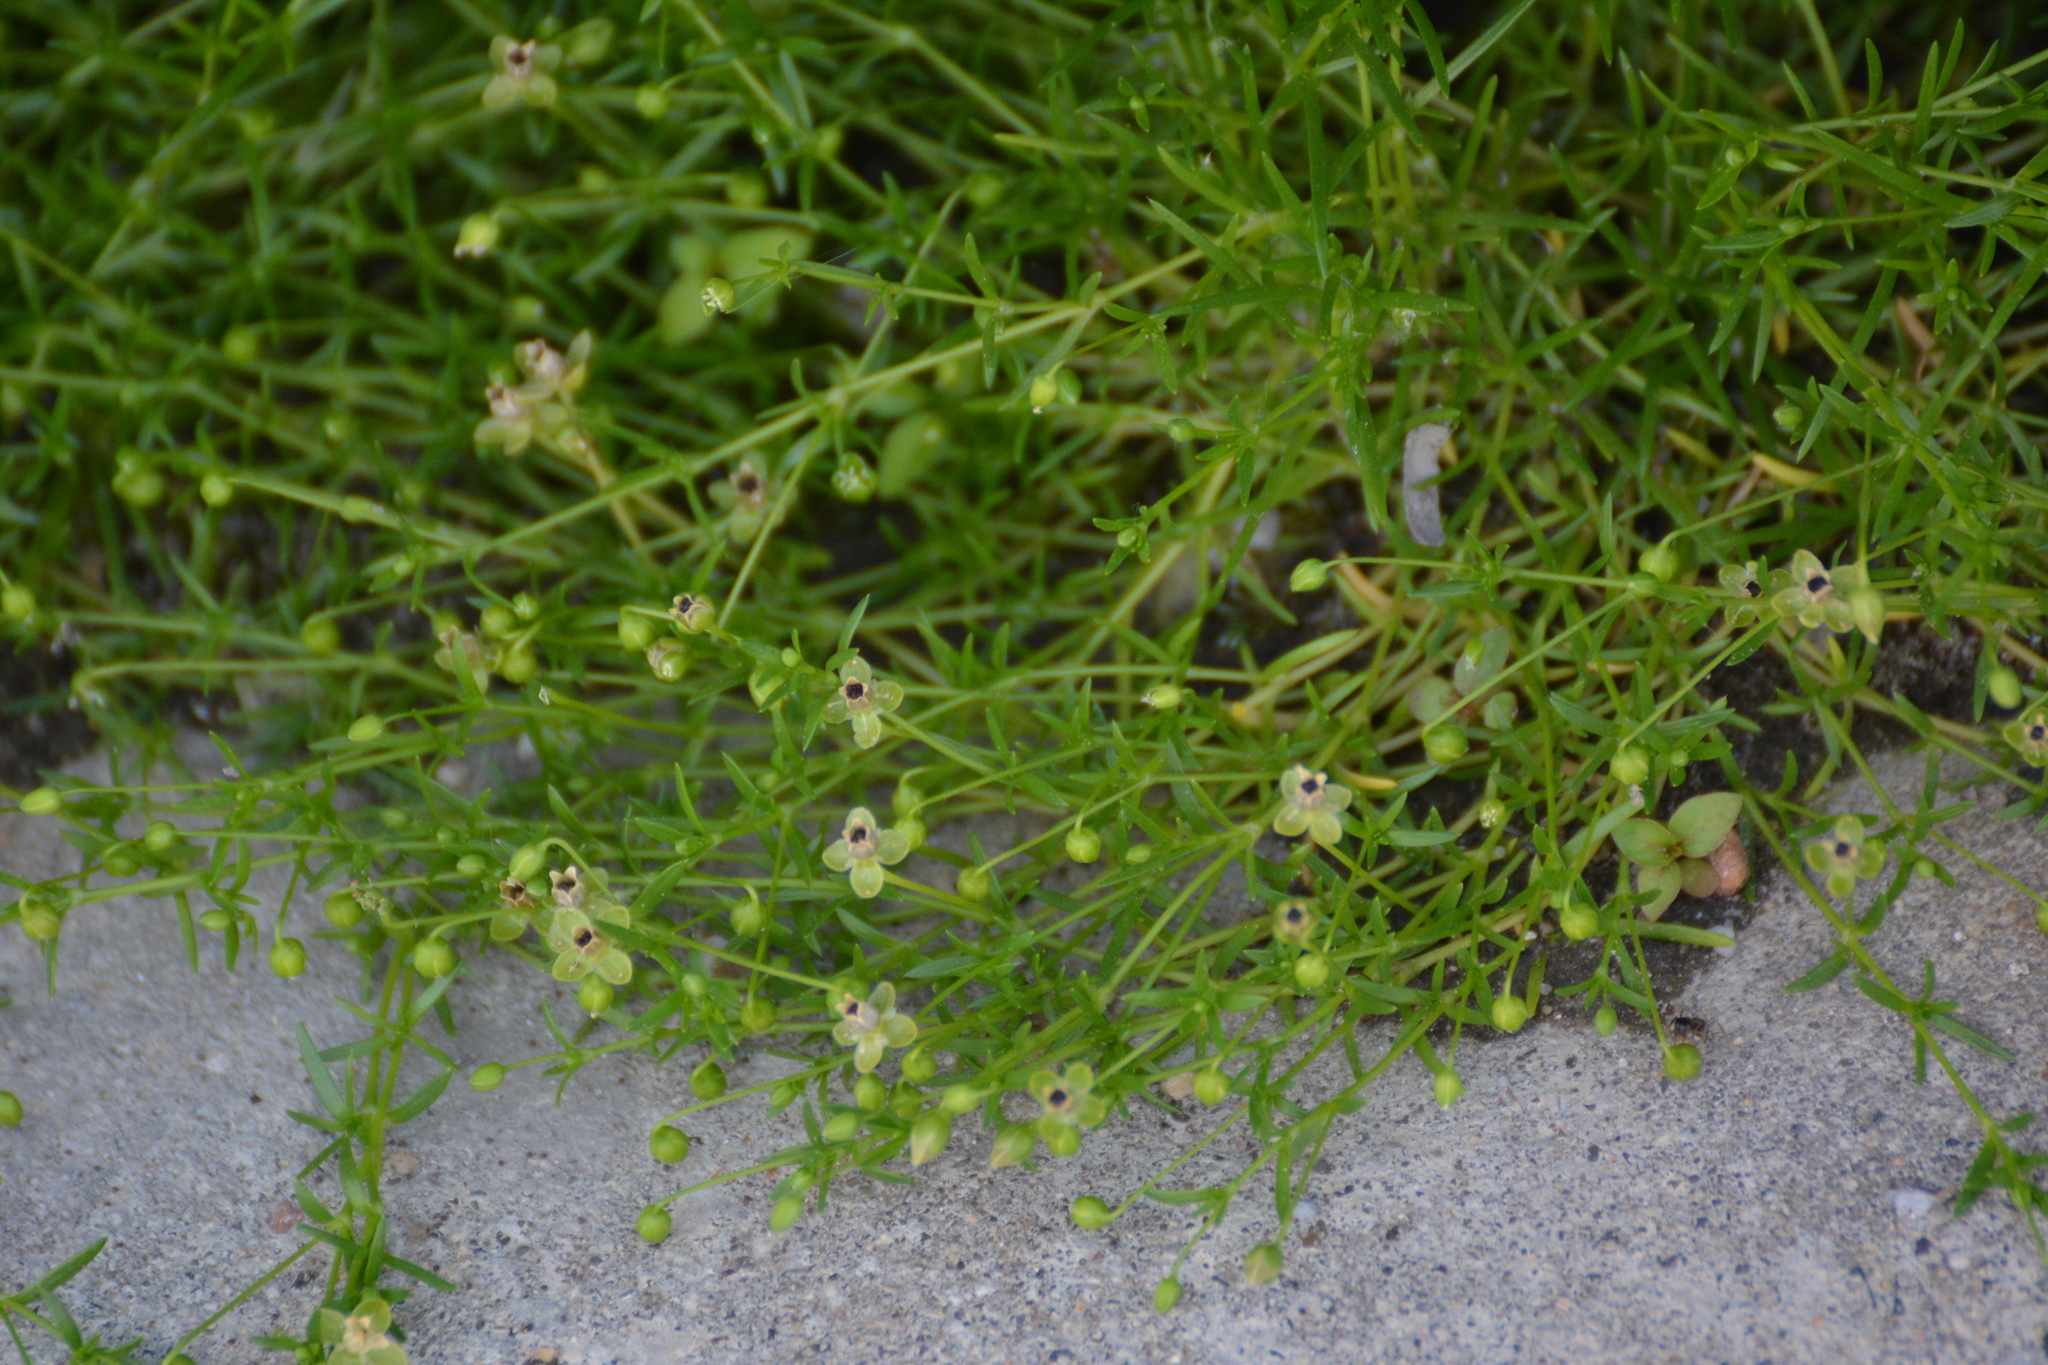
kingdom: Plantae
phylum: Tracheophyta
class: Magnoliopsida
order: Caryophyllales
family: Caryophyllaceae
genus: Sagina
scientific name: Sagina procumbens
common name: Procumbent pearlwort
